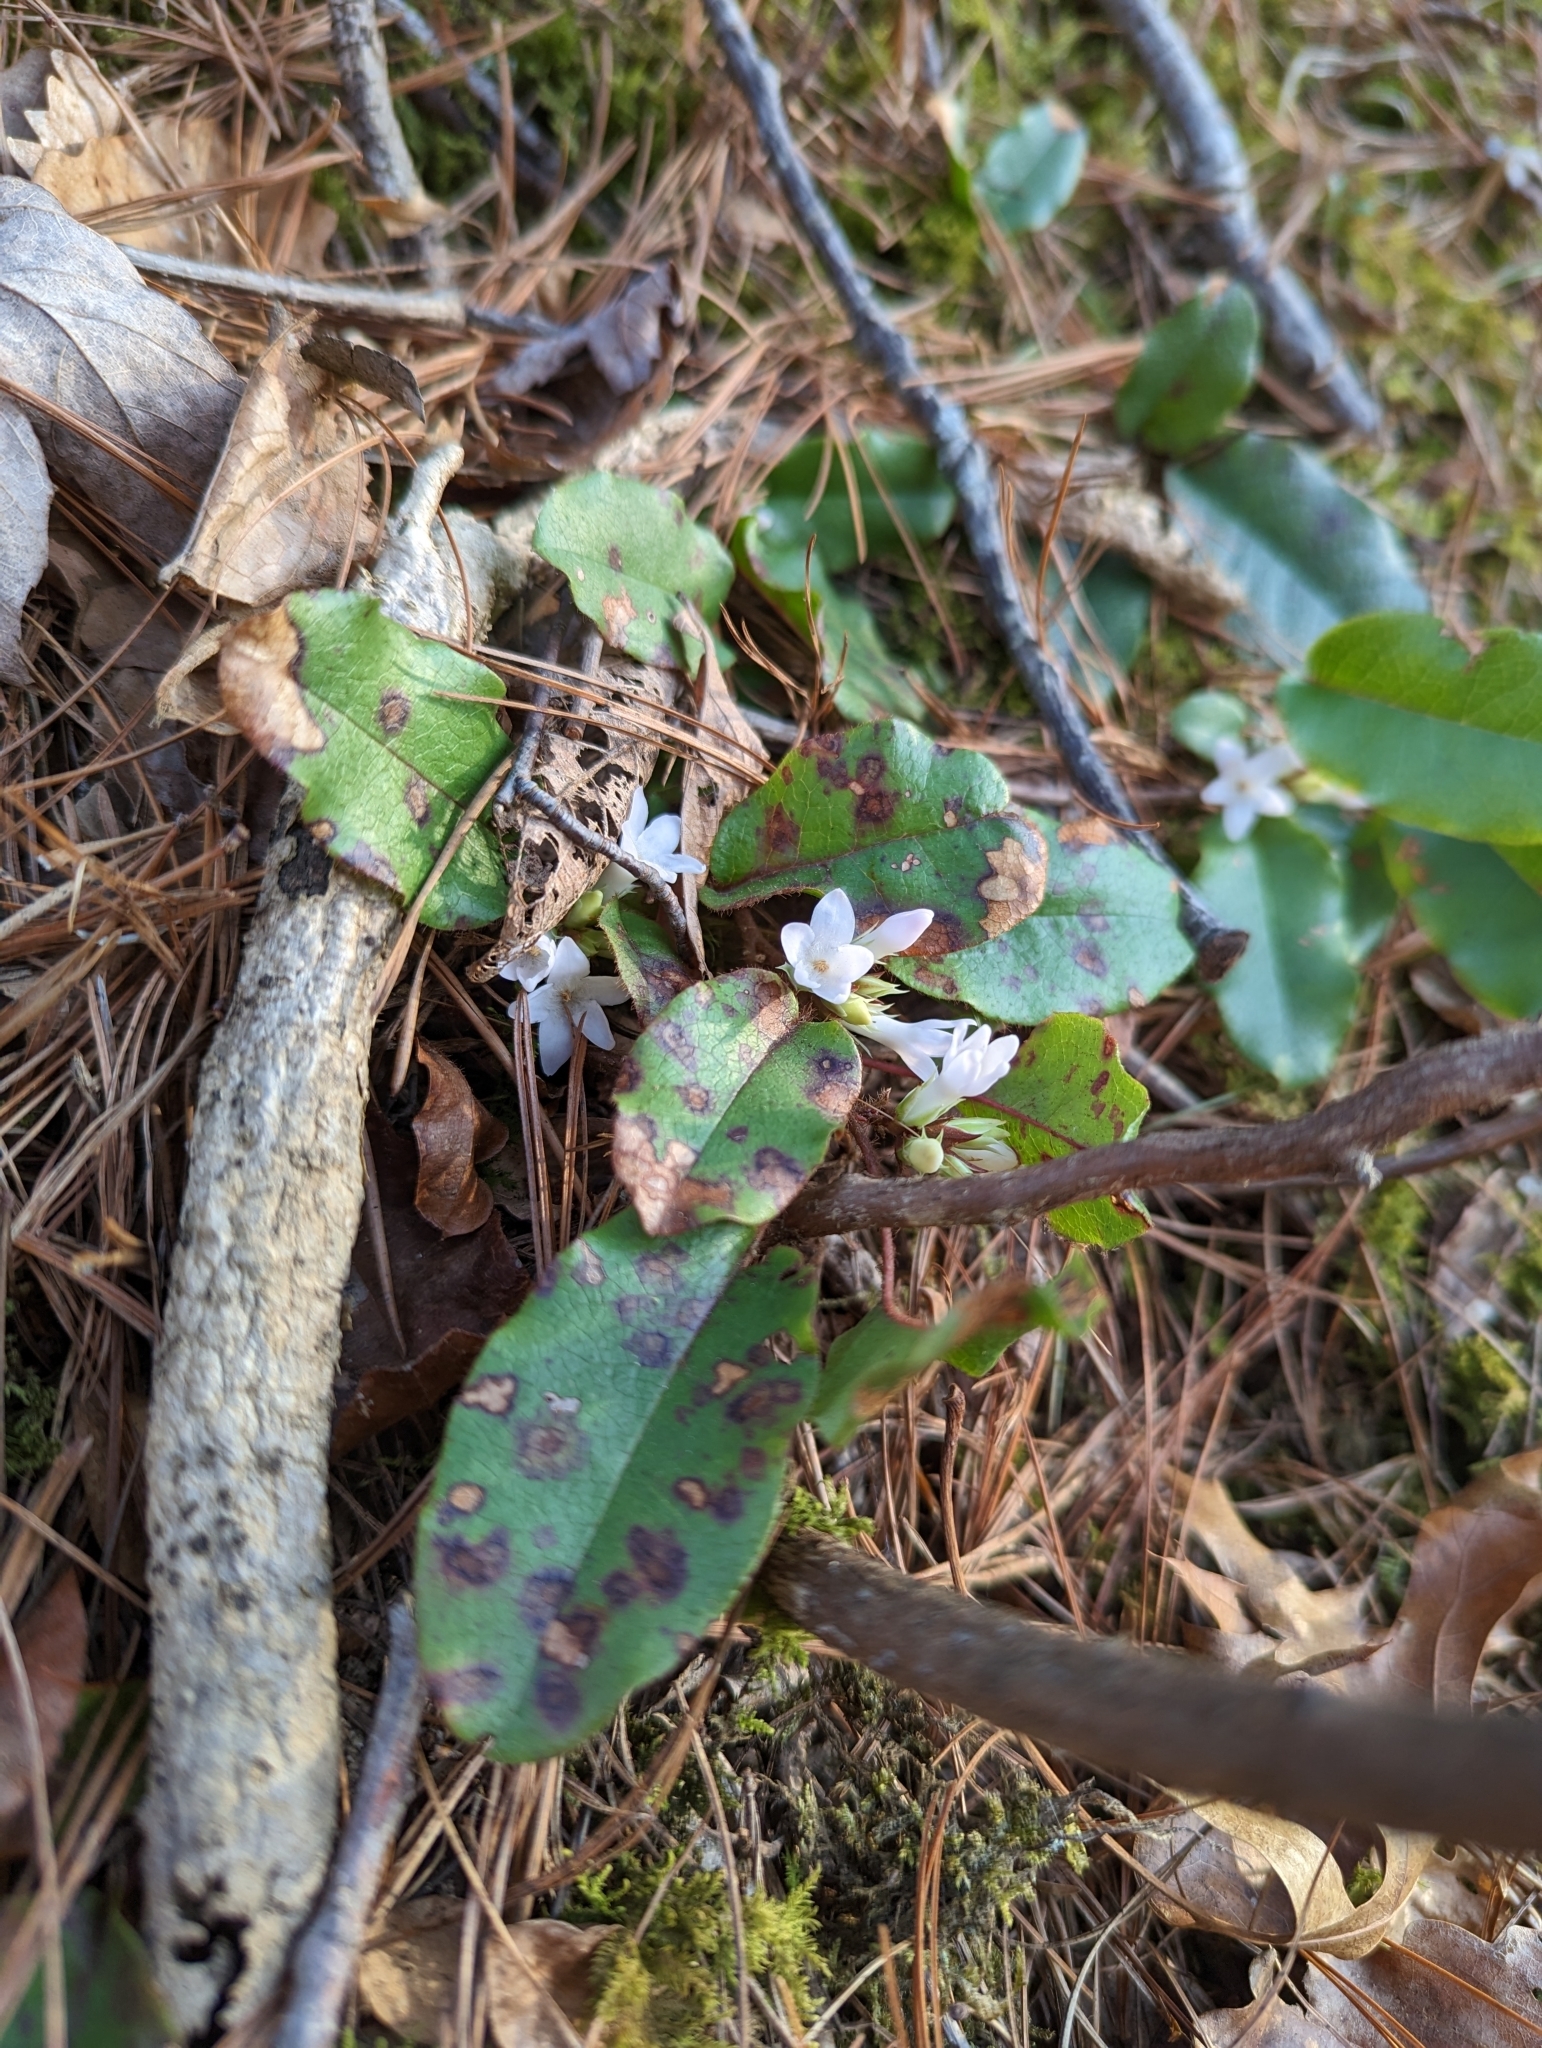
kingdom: Plantae
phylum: Tracheophyta
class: Magnoliopsida
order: Ericales
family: Ericaceae
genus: Epigaea
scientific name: Epigaea repens
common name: Gravelroot
